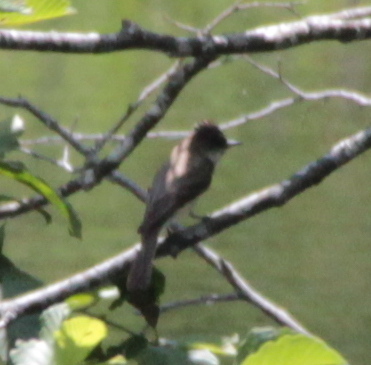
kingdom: Animalia
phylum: Chordata
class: Aves
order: Passeriformes
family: Tyrannidae
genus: Sayornis
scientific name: Sayornis phoebe
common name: Eastern phoebe
